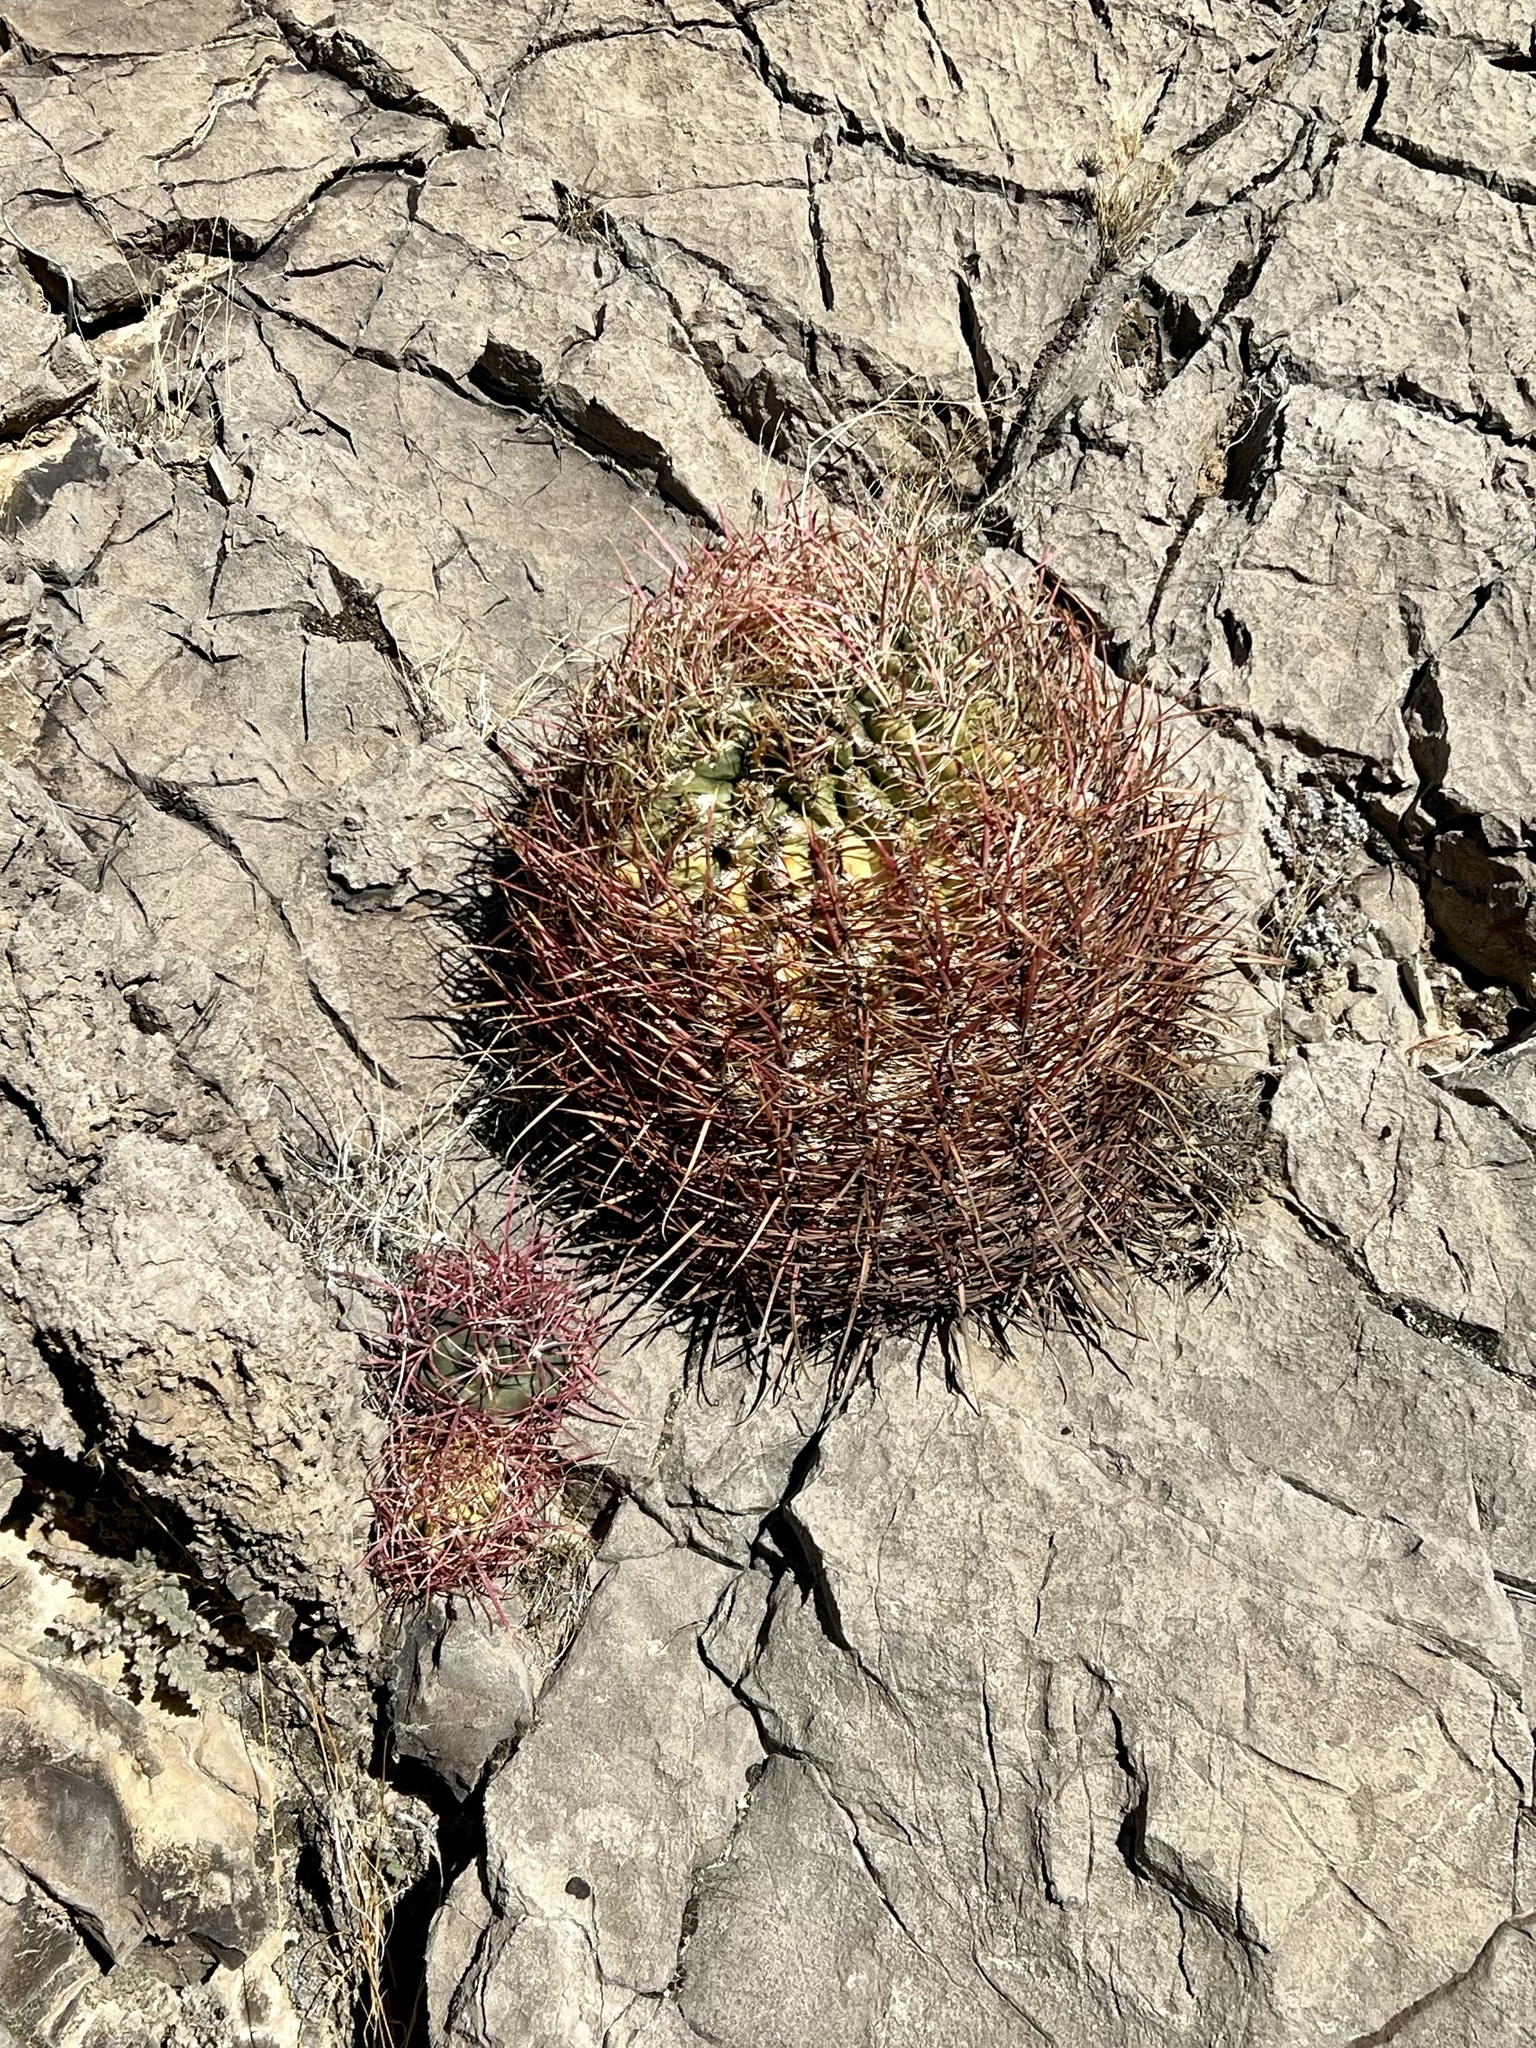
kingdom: Plantae
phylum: Tracheophyta
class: Magnoliopsida
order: Caryophyllales
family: Cactaceae
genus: Ferocactus
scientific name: Ferocactus cylindraceus
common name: California barrel cactus
